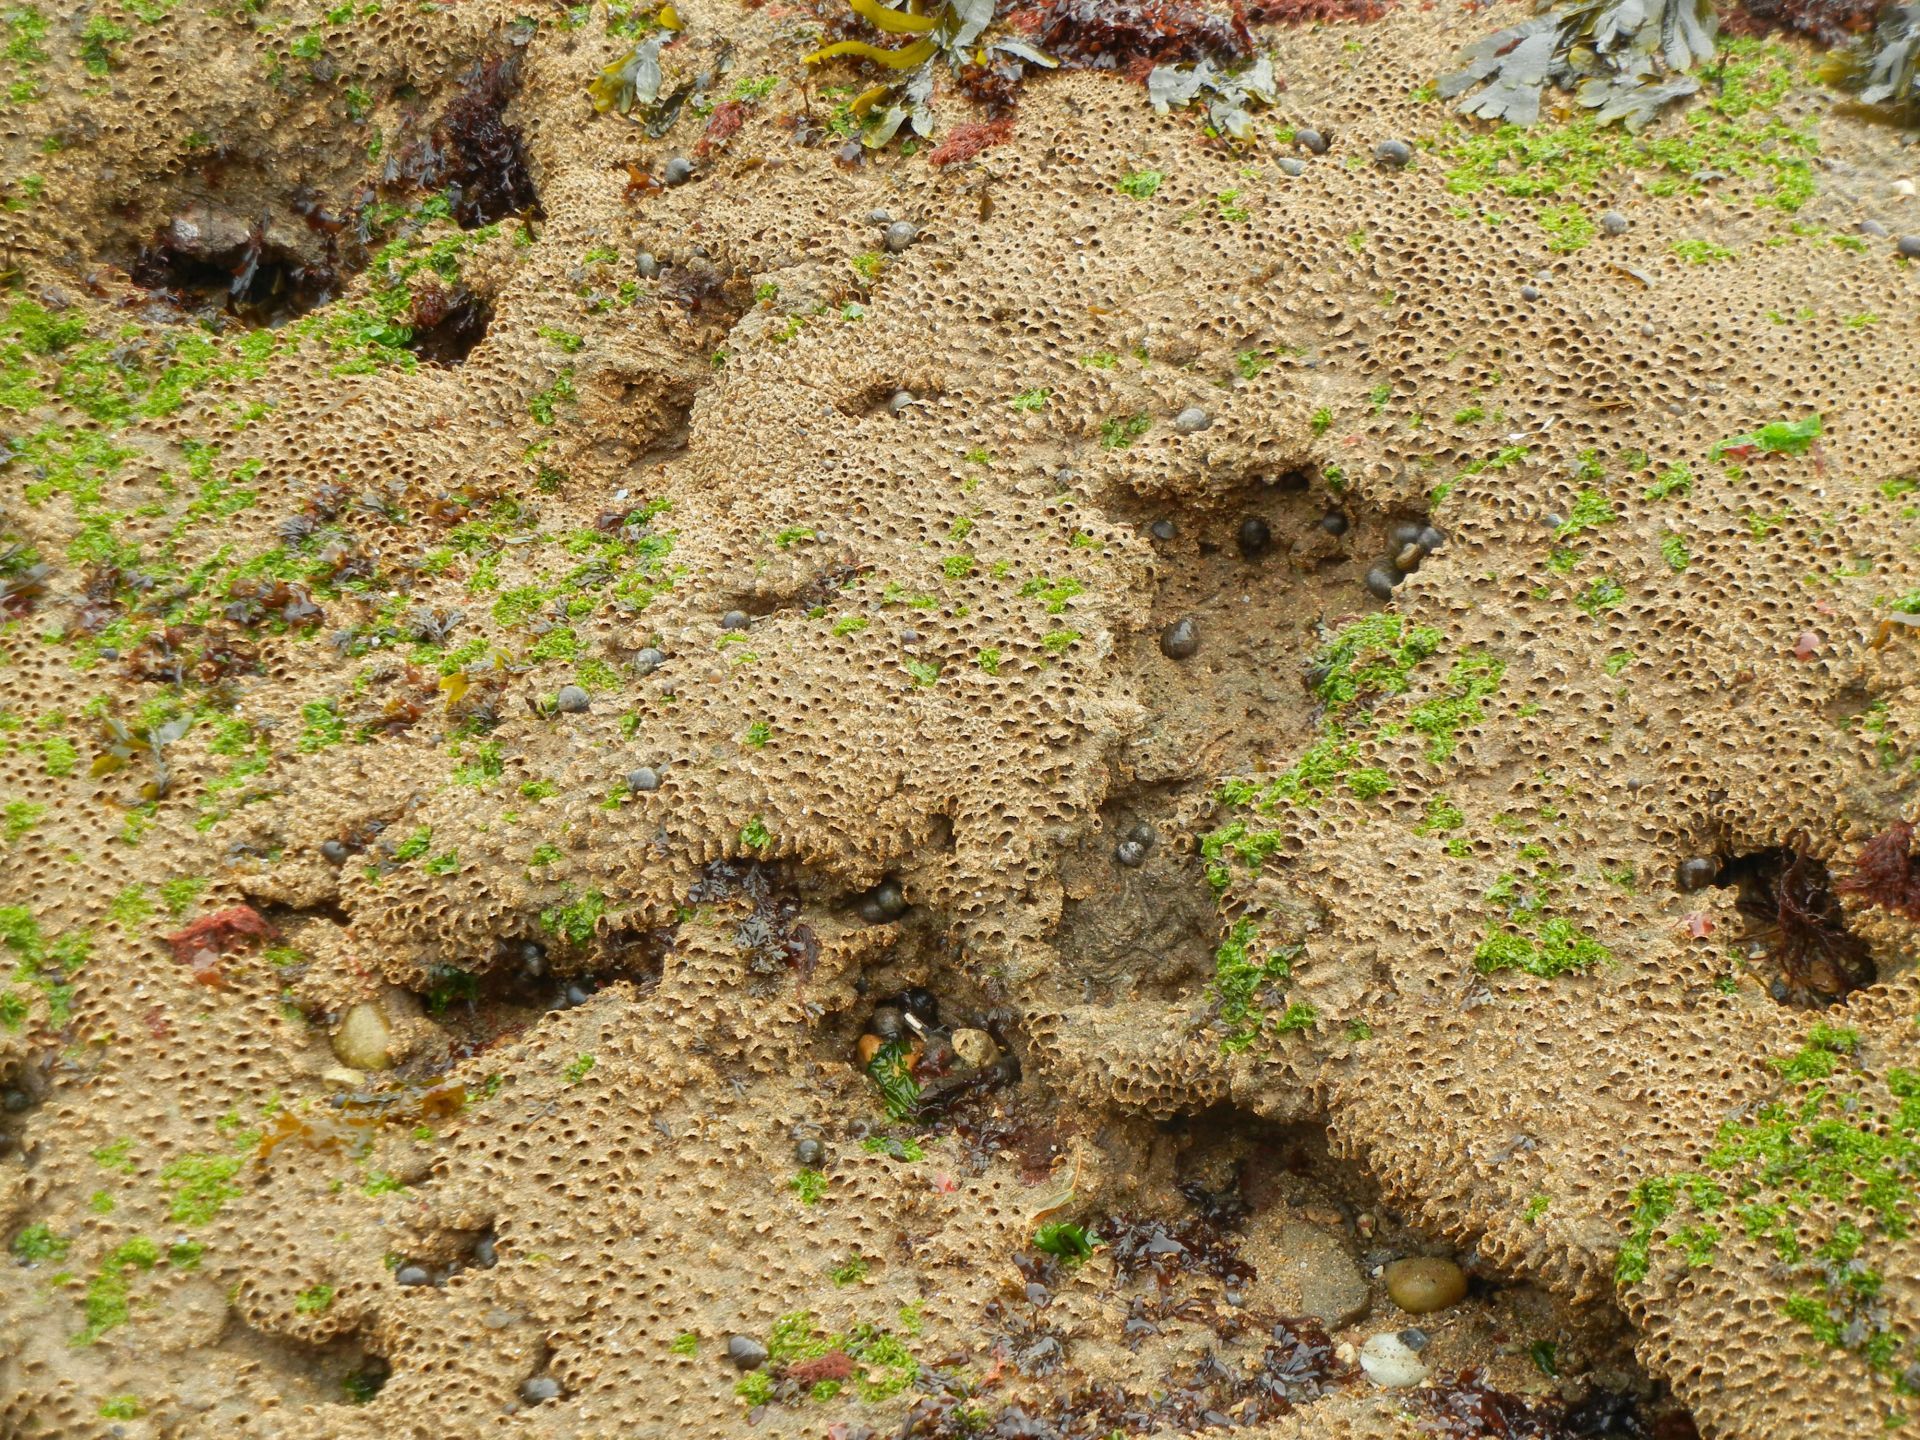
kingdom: Animalia
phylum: Annelida
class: Polychaeta
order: Sabellida
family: Sabellariidae
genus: Sabellaria
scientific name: Sabellaria alveolata
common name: Honeycomb worm
